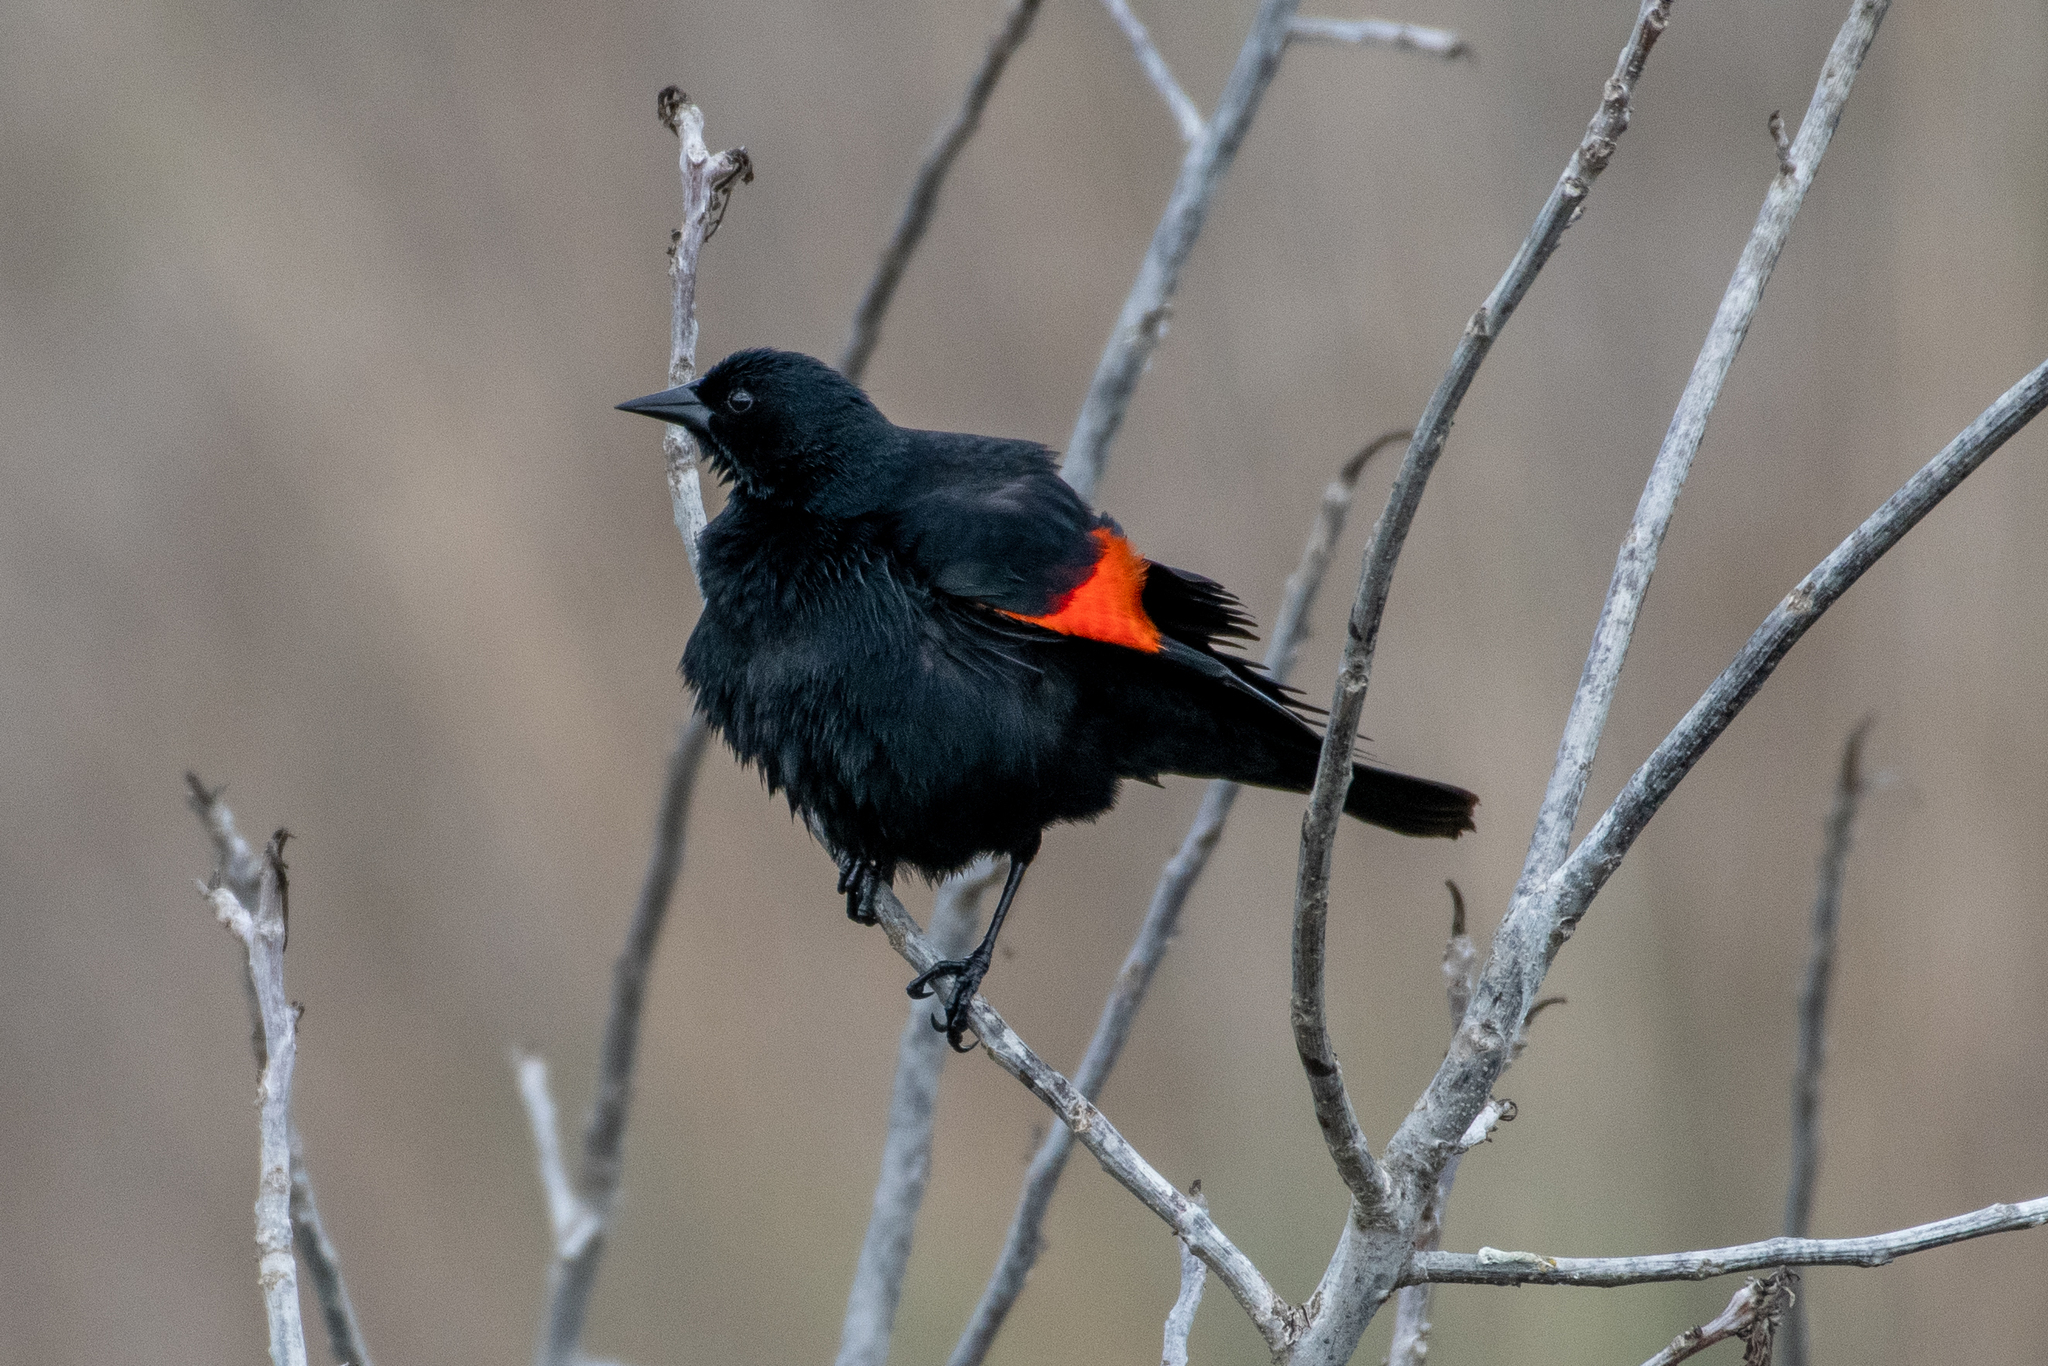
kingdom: Animalia
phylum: Chordata
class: Aves
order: Passeriformes
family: Icteridae
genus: Agelaius
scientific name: Agelaius phoeniceus
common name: Red-winged blackbird
